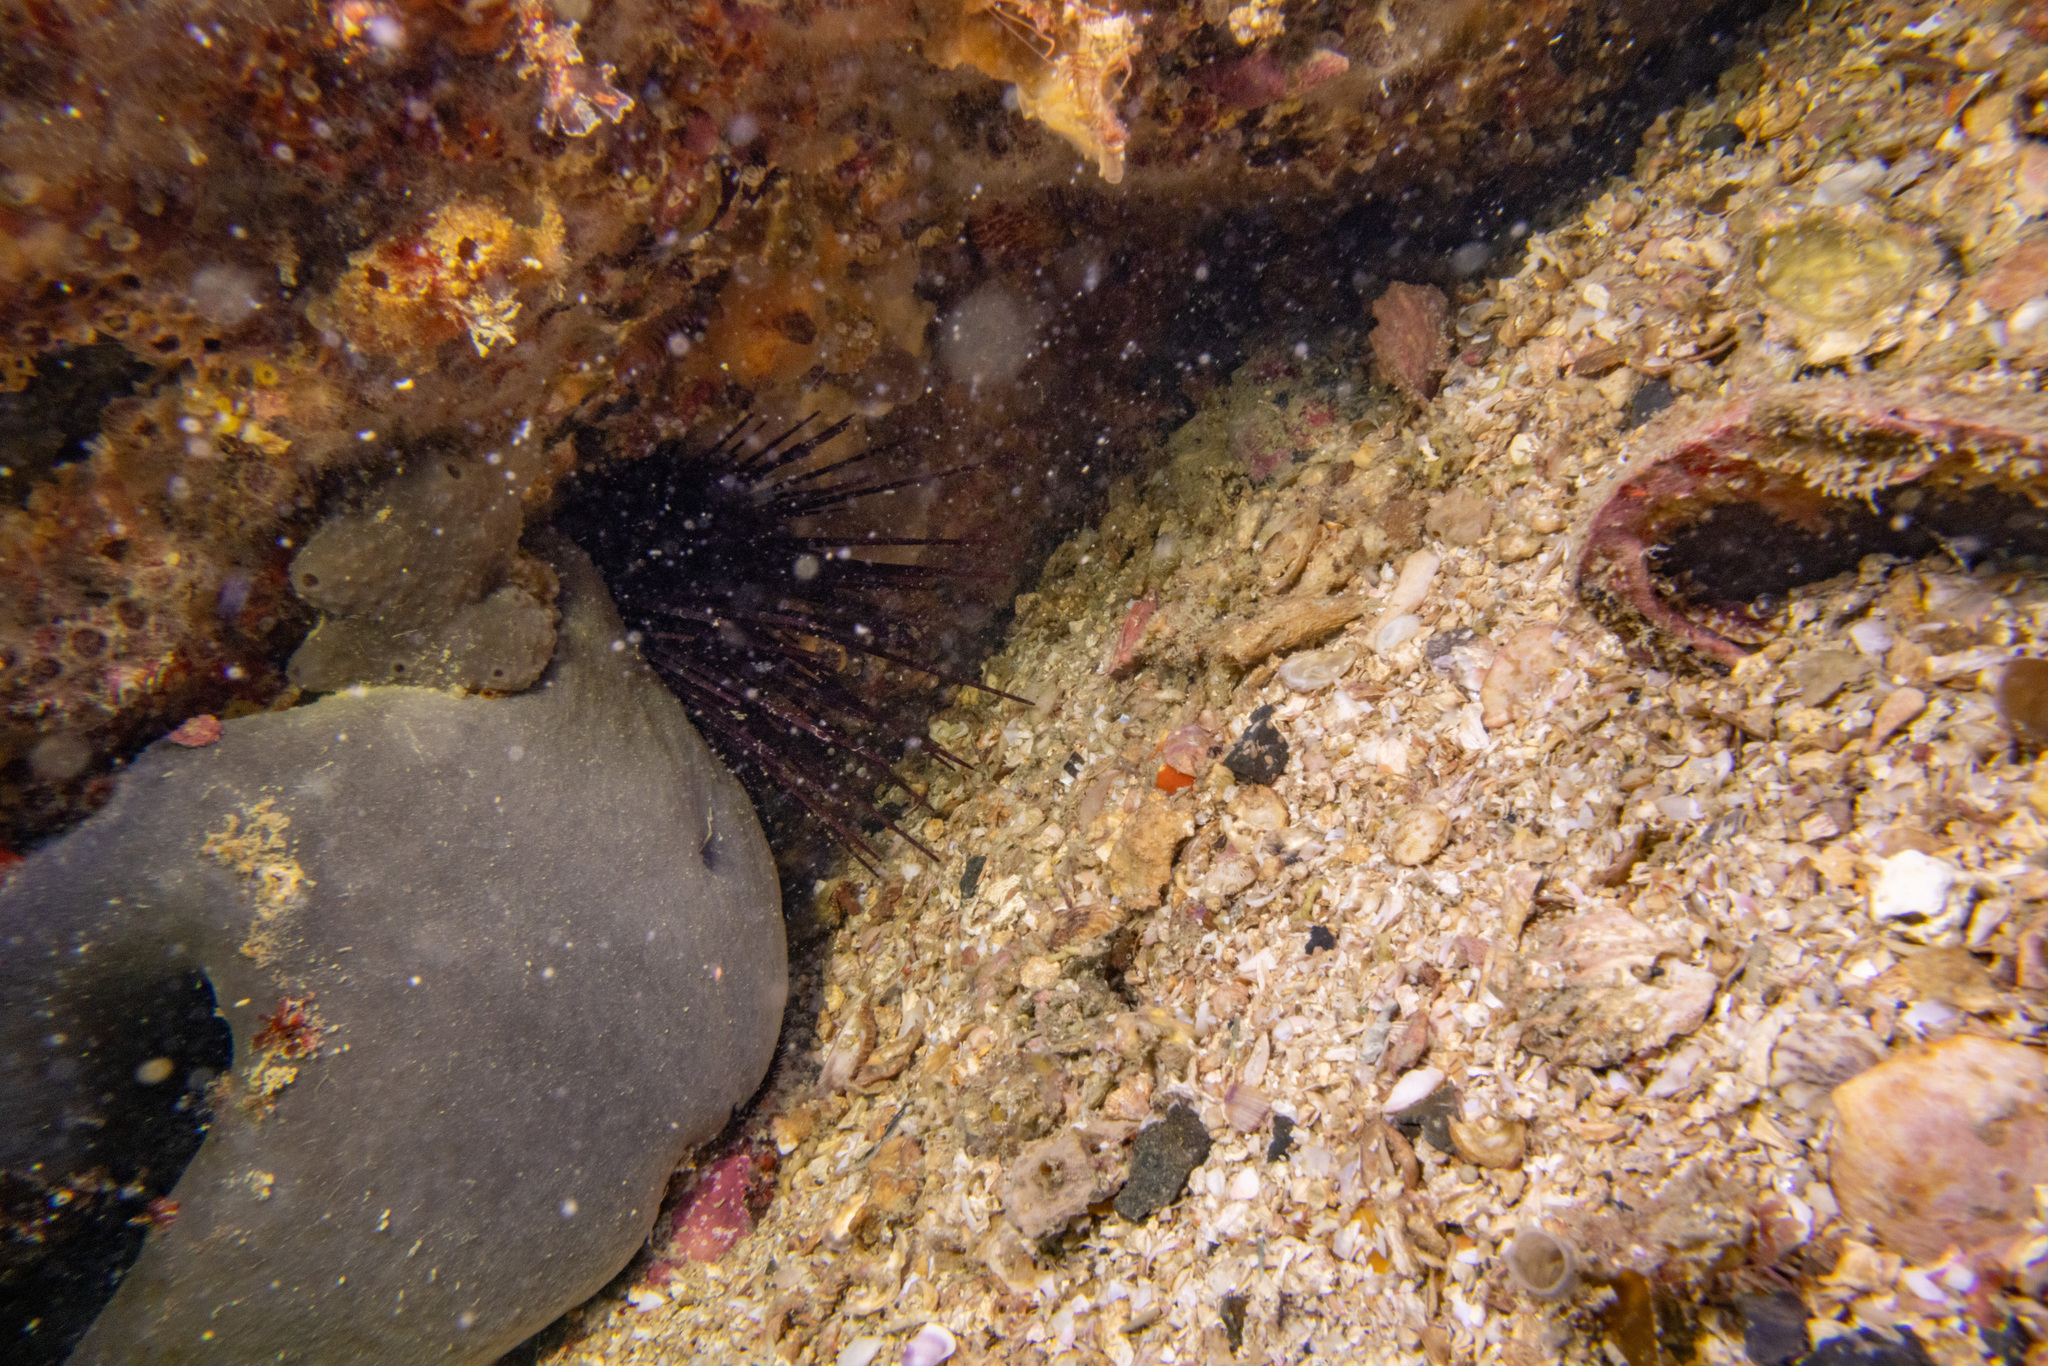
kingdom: Animalia
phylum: Echinodermata
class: Echinoidea
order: Diadematoida
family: Diadematidae
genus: Centrostephanus
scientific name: Centrostephanus rodgersii
